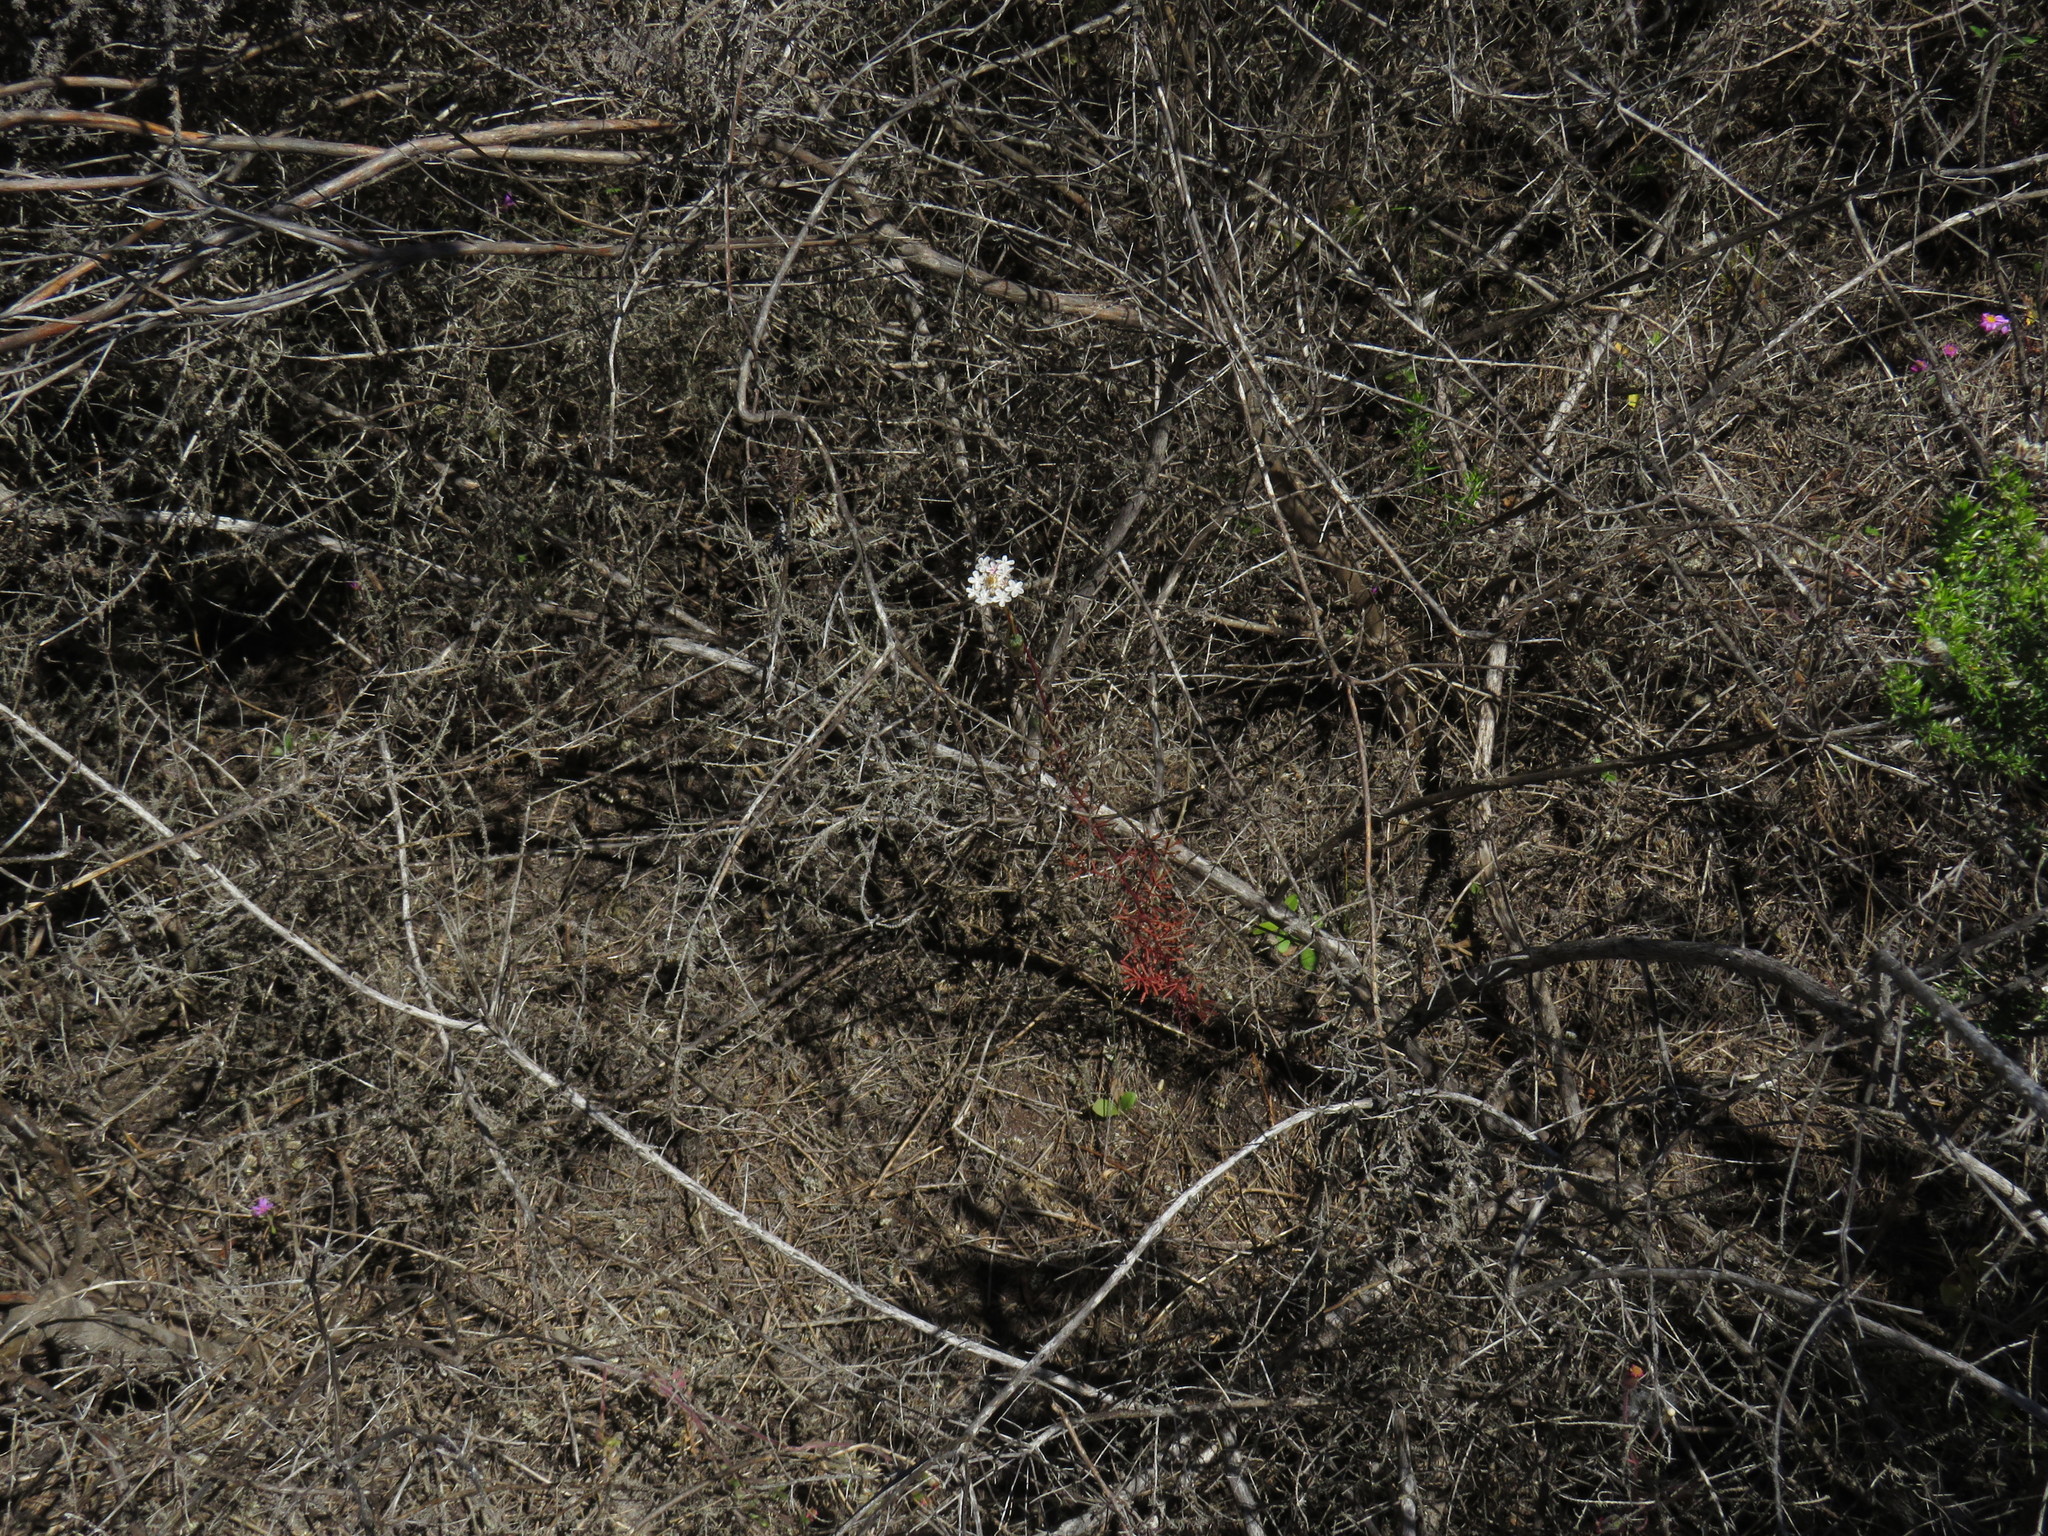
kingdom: Plantae
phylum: Tracheophyta
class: Magnoliopsida
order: Asterales
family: Asteraceae
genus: Ursinia
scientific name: Ursinia anthemoides
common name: Ursinia
